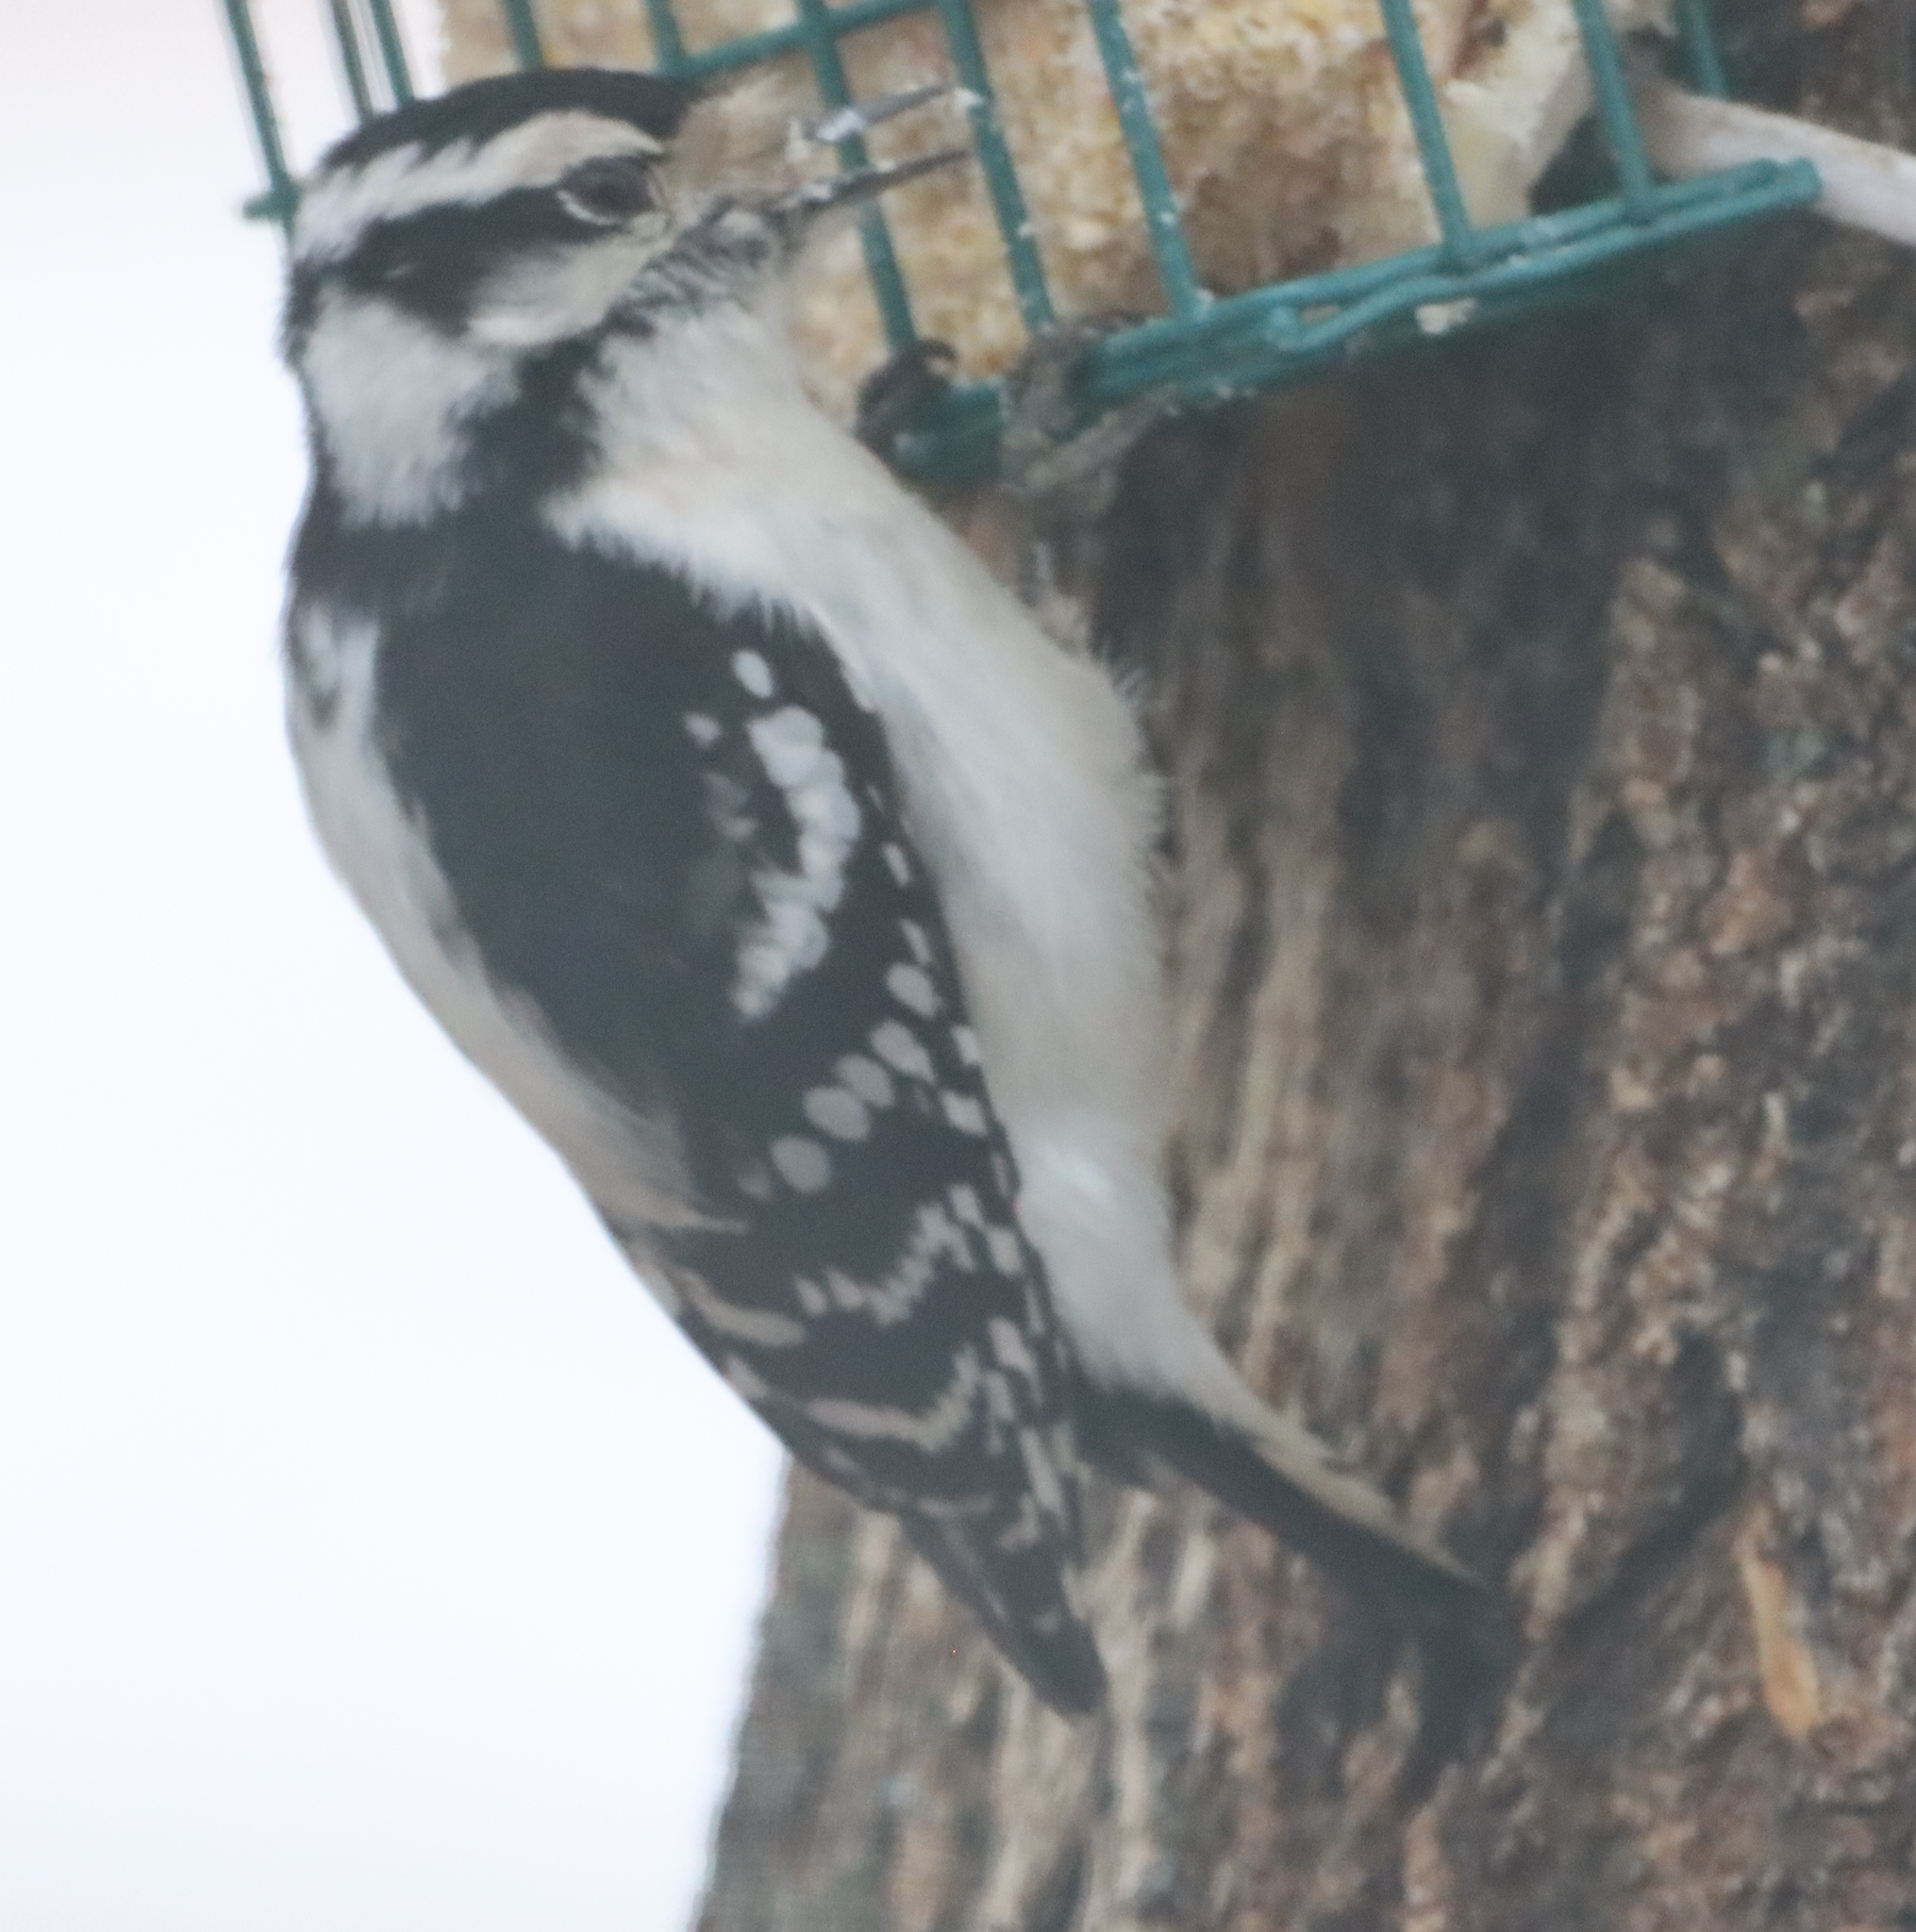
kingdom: Animalia
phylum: Chordata
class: Aves
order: Piciformes
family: Picidae
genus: Dryobates
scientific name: Dryobates pubescens
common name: Downy woodpecker
